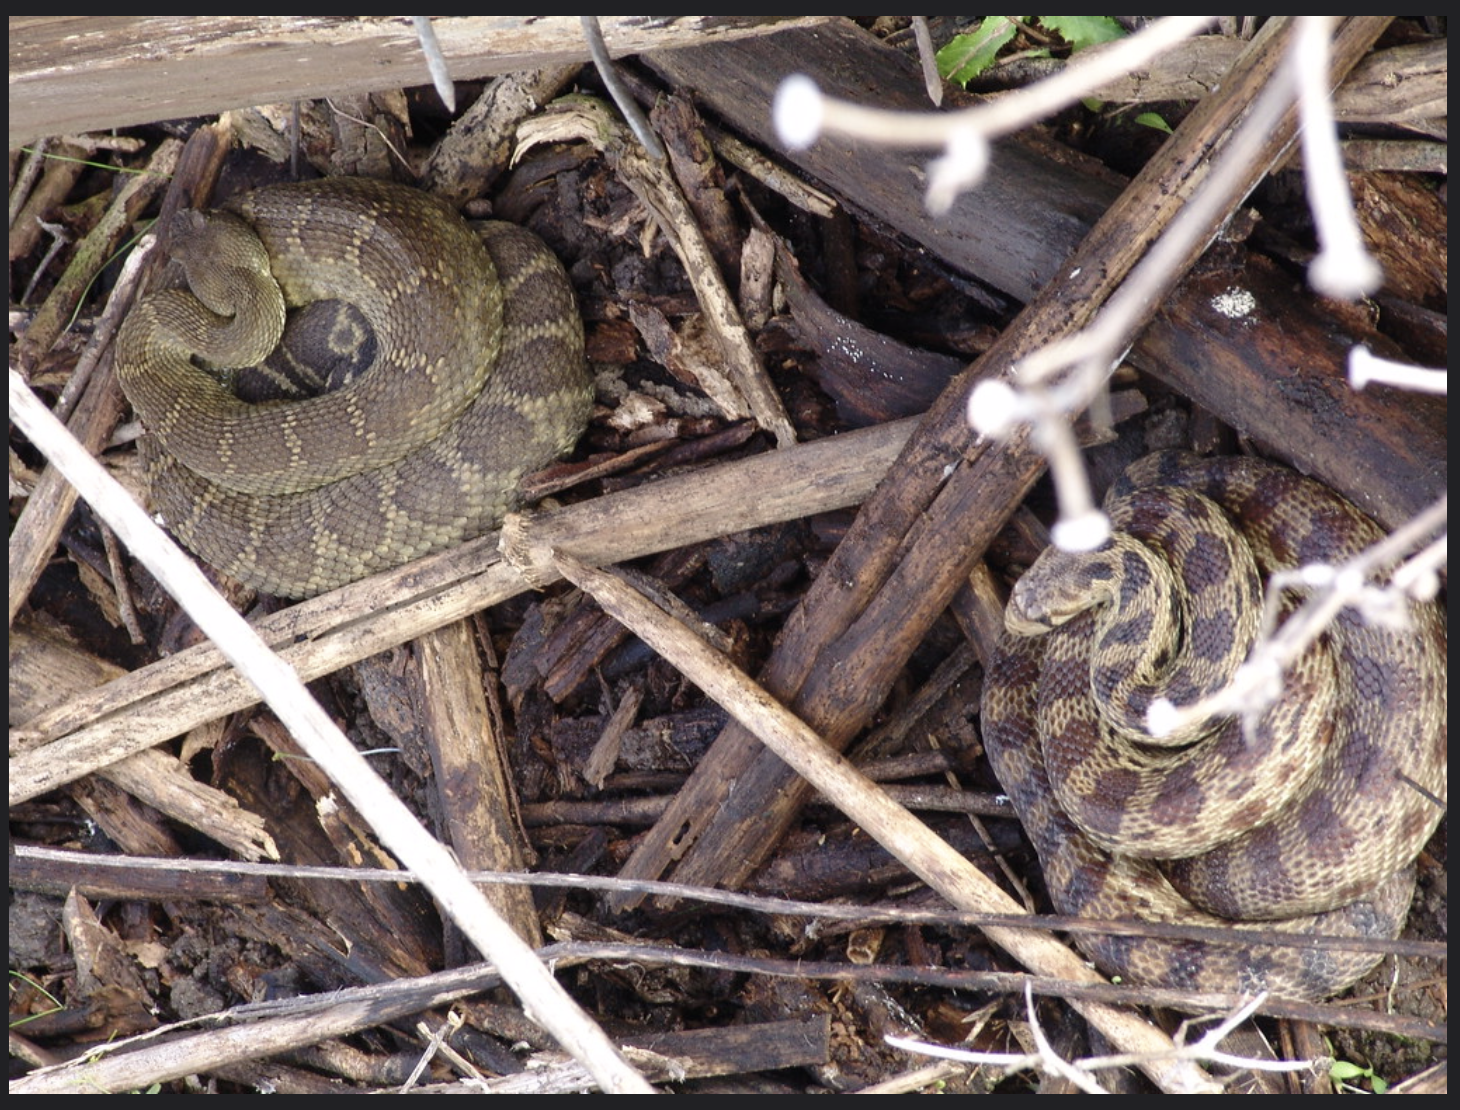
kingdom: Animalia
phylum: Chordata
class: Squamata
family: Colubridae
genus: Pituophis
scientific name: Pituophis catenifer
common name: Gopher snake
